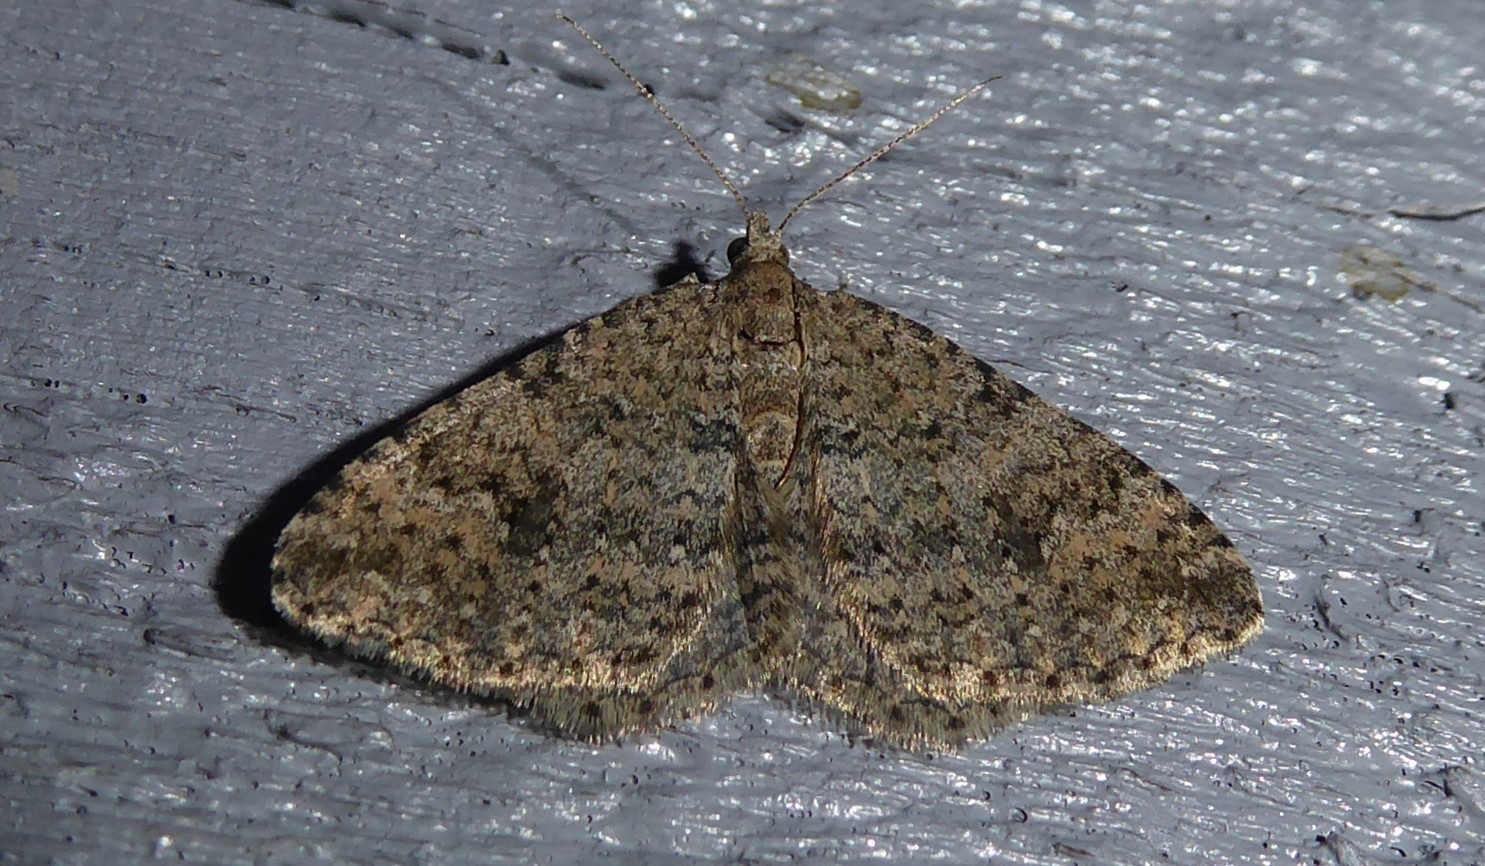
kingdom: Animalia
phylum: Arthropoda
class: Insecta
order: Lepidoptera
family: Geometridae
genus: Helastia
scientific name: Helastia corcularia
